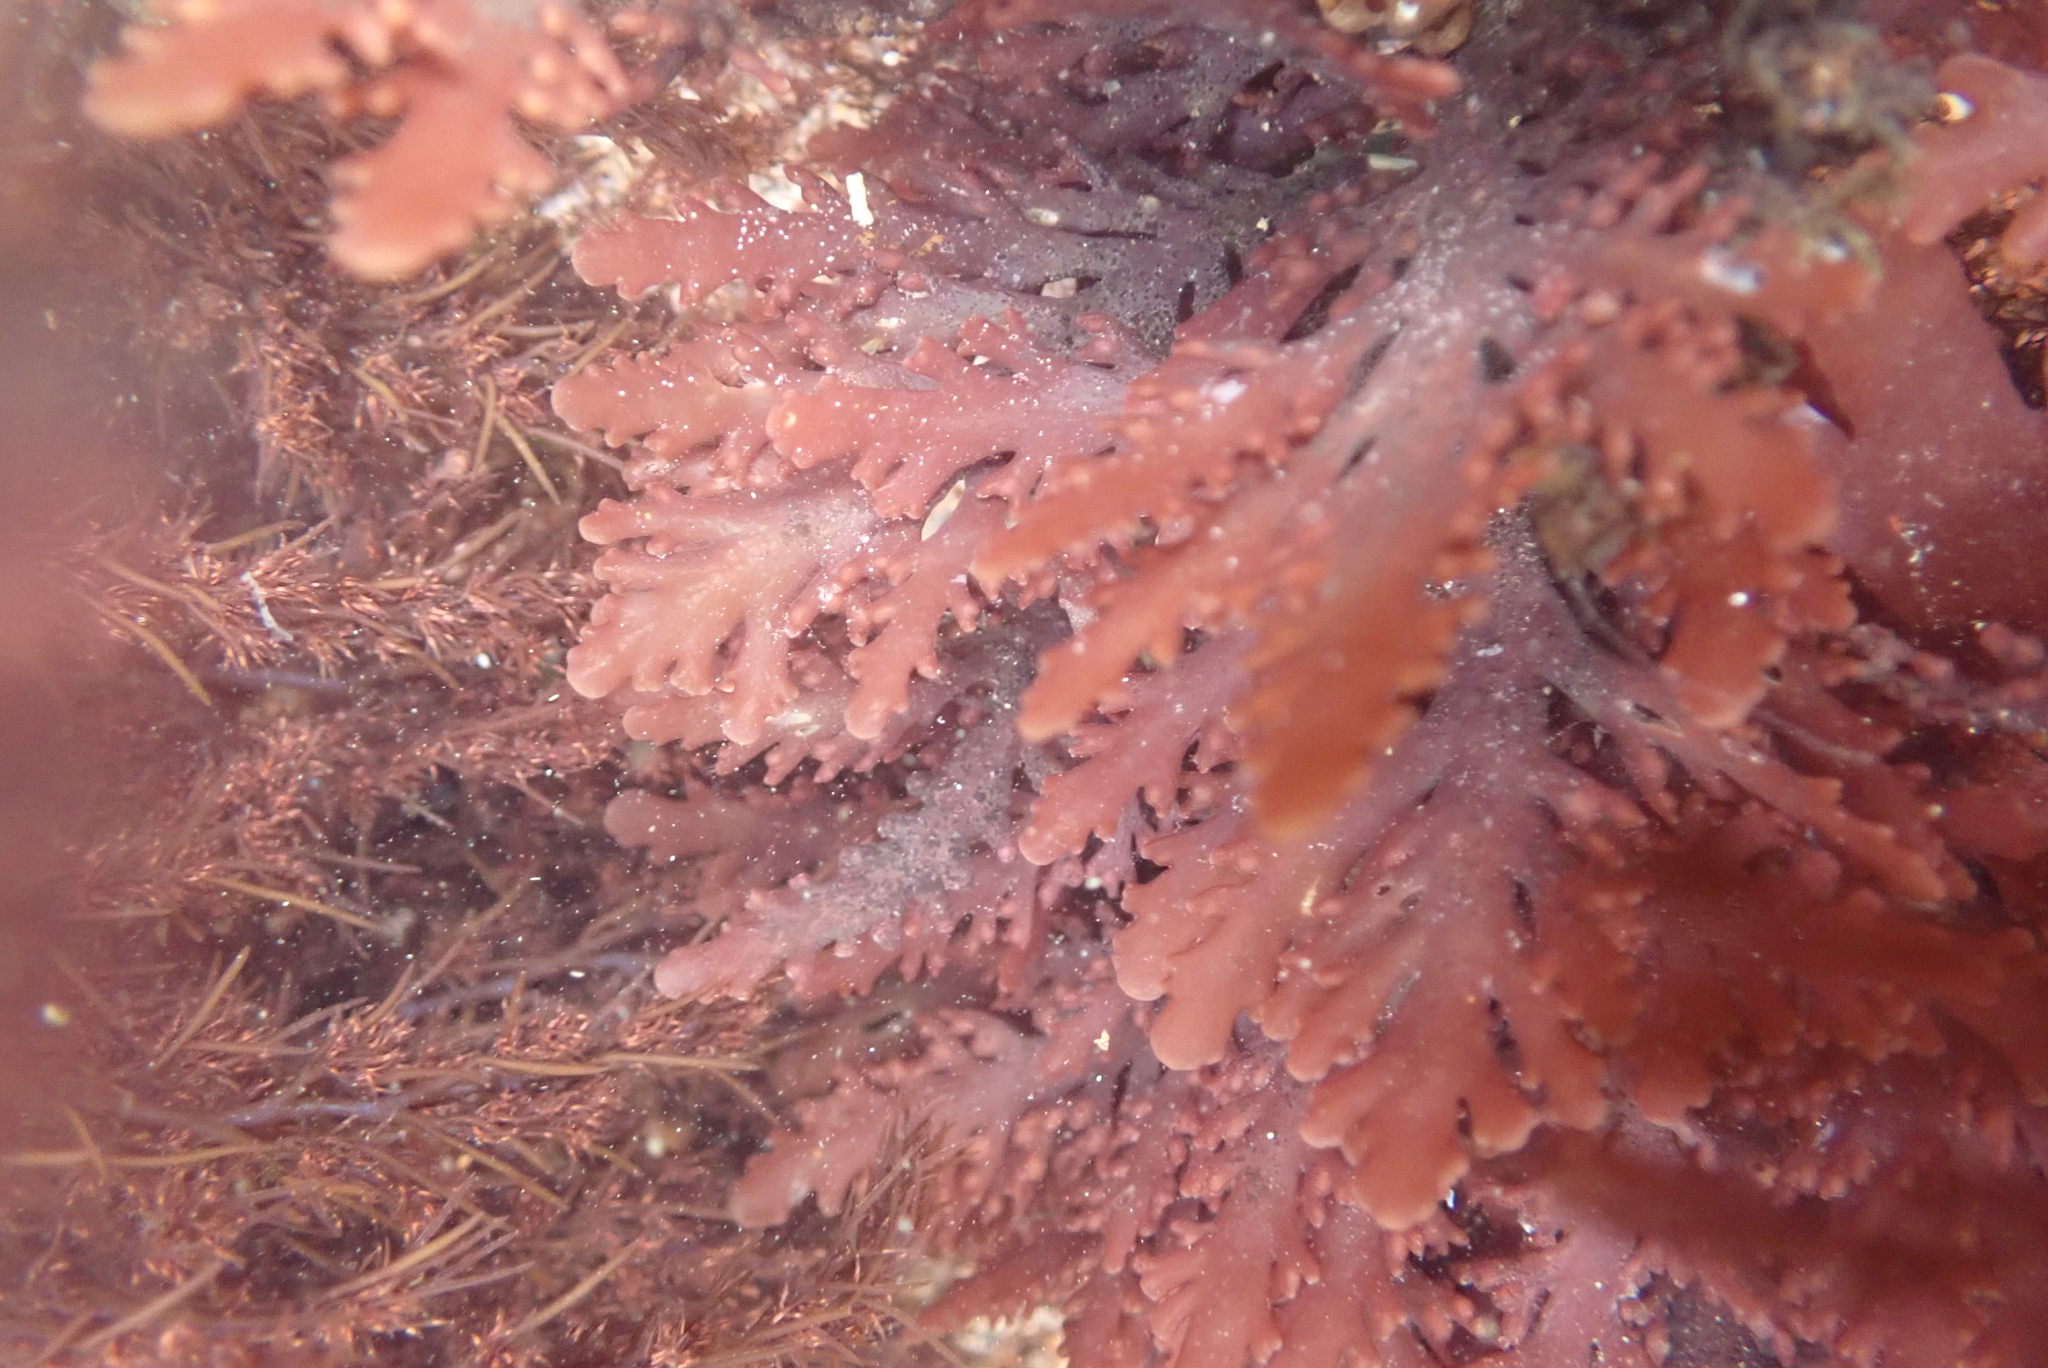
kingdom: Plantae
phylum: Rhodophyta
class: Florideophyceae
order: Ceramiales
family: Rhodomelaceae
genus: Osmundea
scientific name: Osmundea spectabilis
